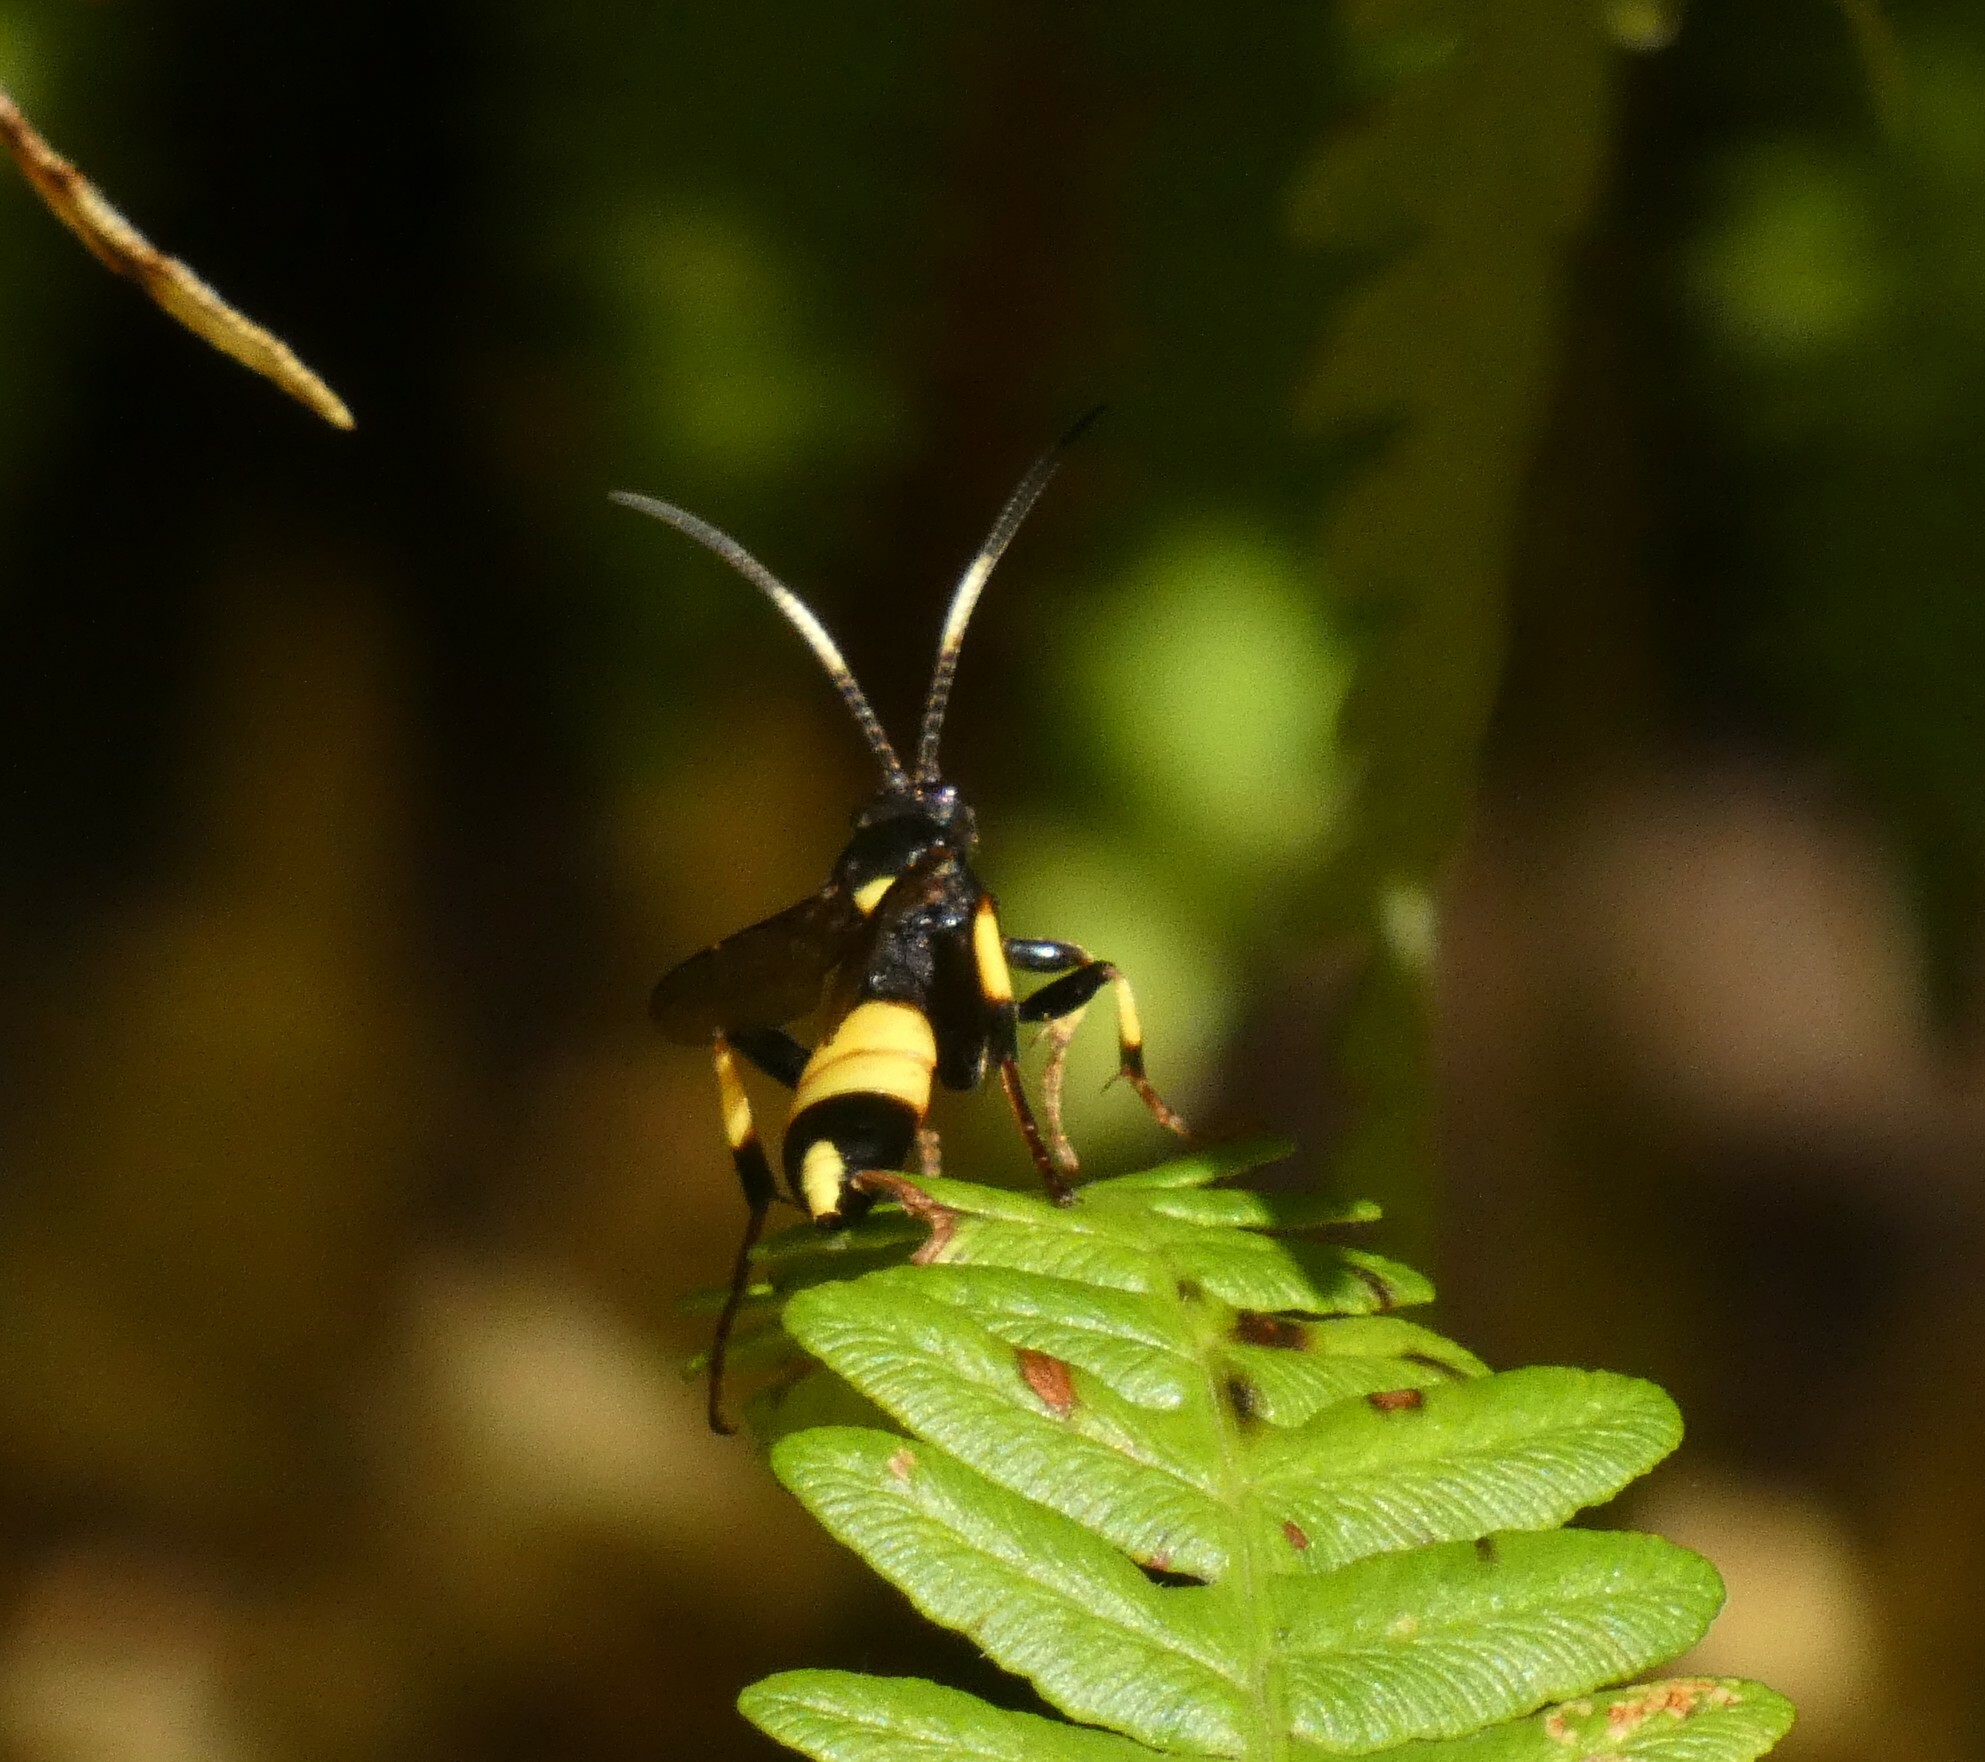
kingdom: Animalia
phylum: Arthropoda
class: Insecta
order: Hymenoptera
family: Ichneumonidae
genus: Ichneumon
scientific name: Ichneumon stramentor
